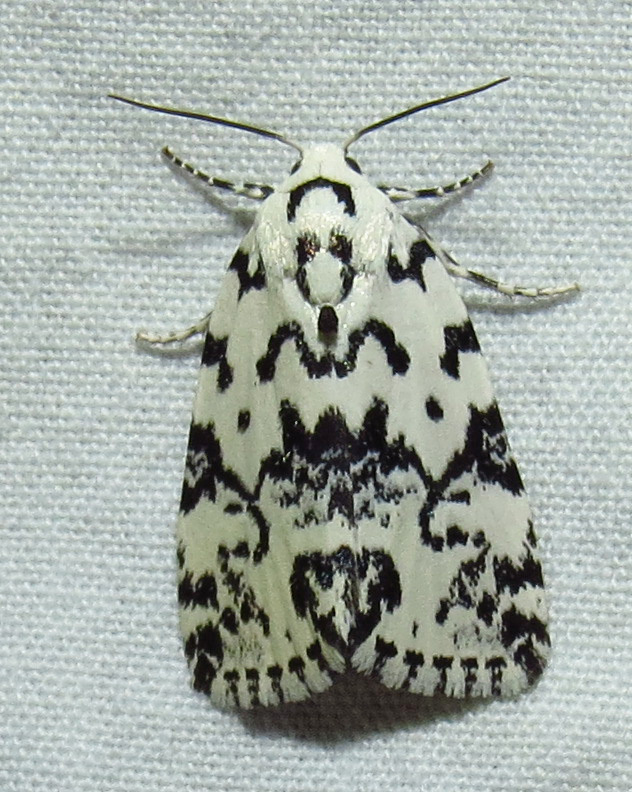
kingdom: Animalia
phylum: Arthropoda
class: Insecta
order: Lepidoptera
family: Noctuidae
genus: Polygrammate
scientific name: Polygrammate hebraeicum
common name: Hebrew moth
